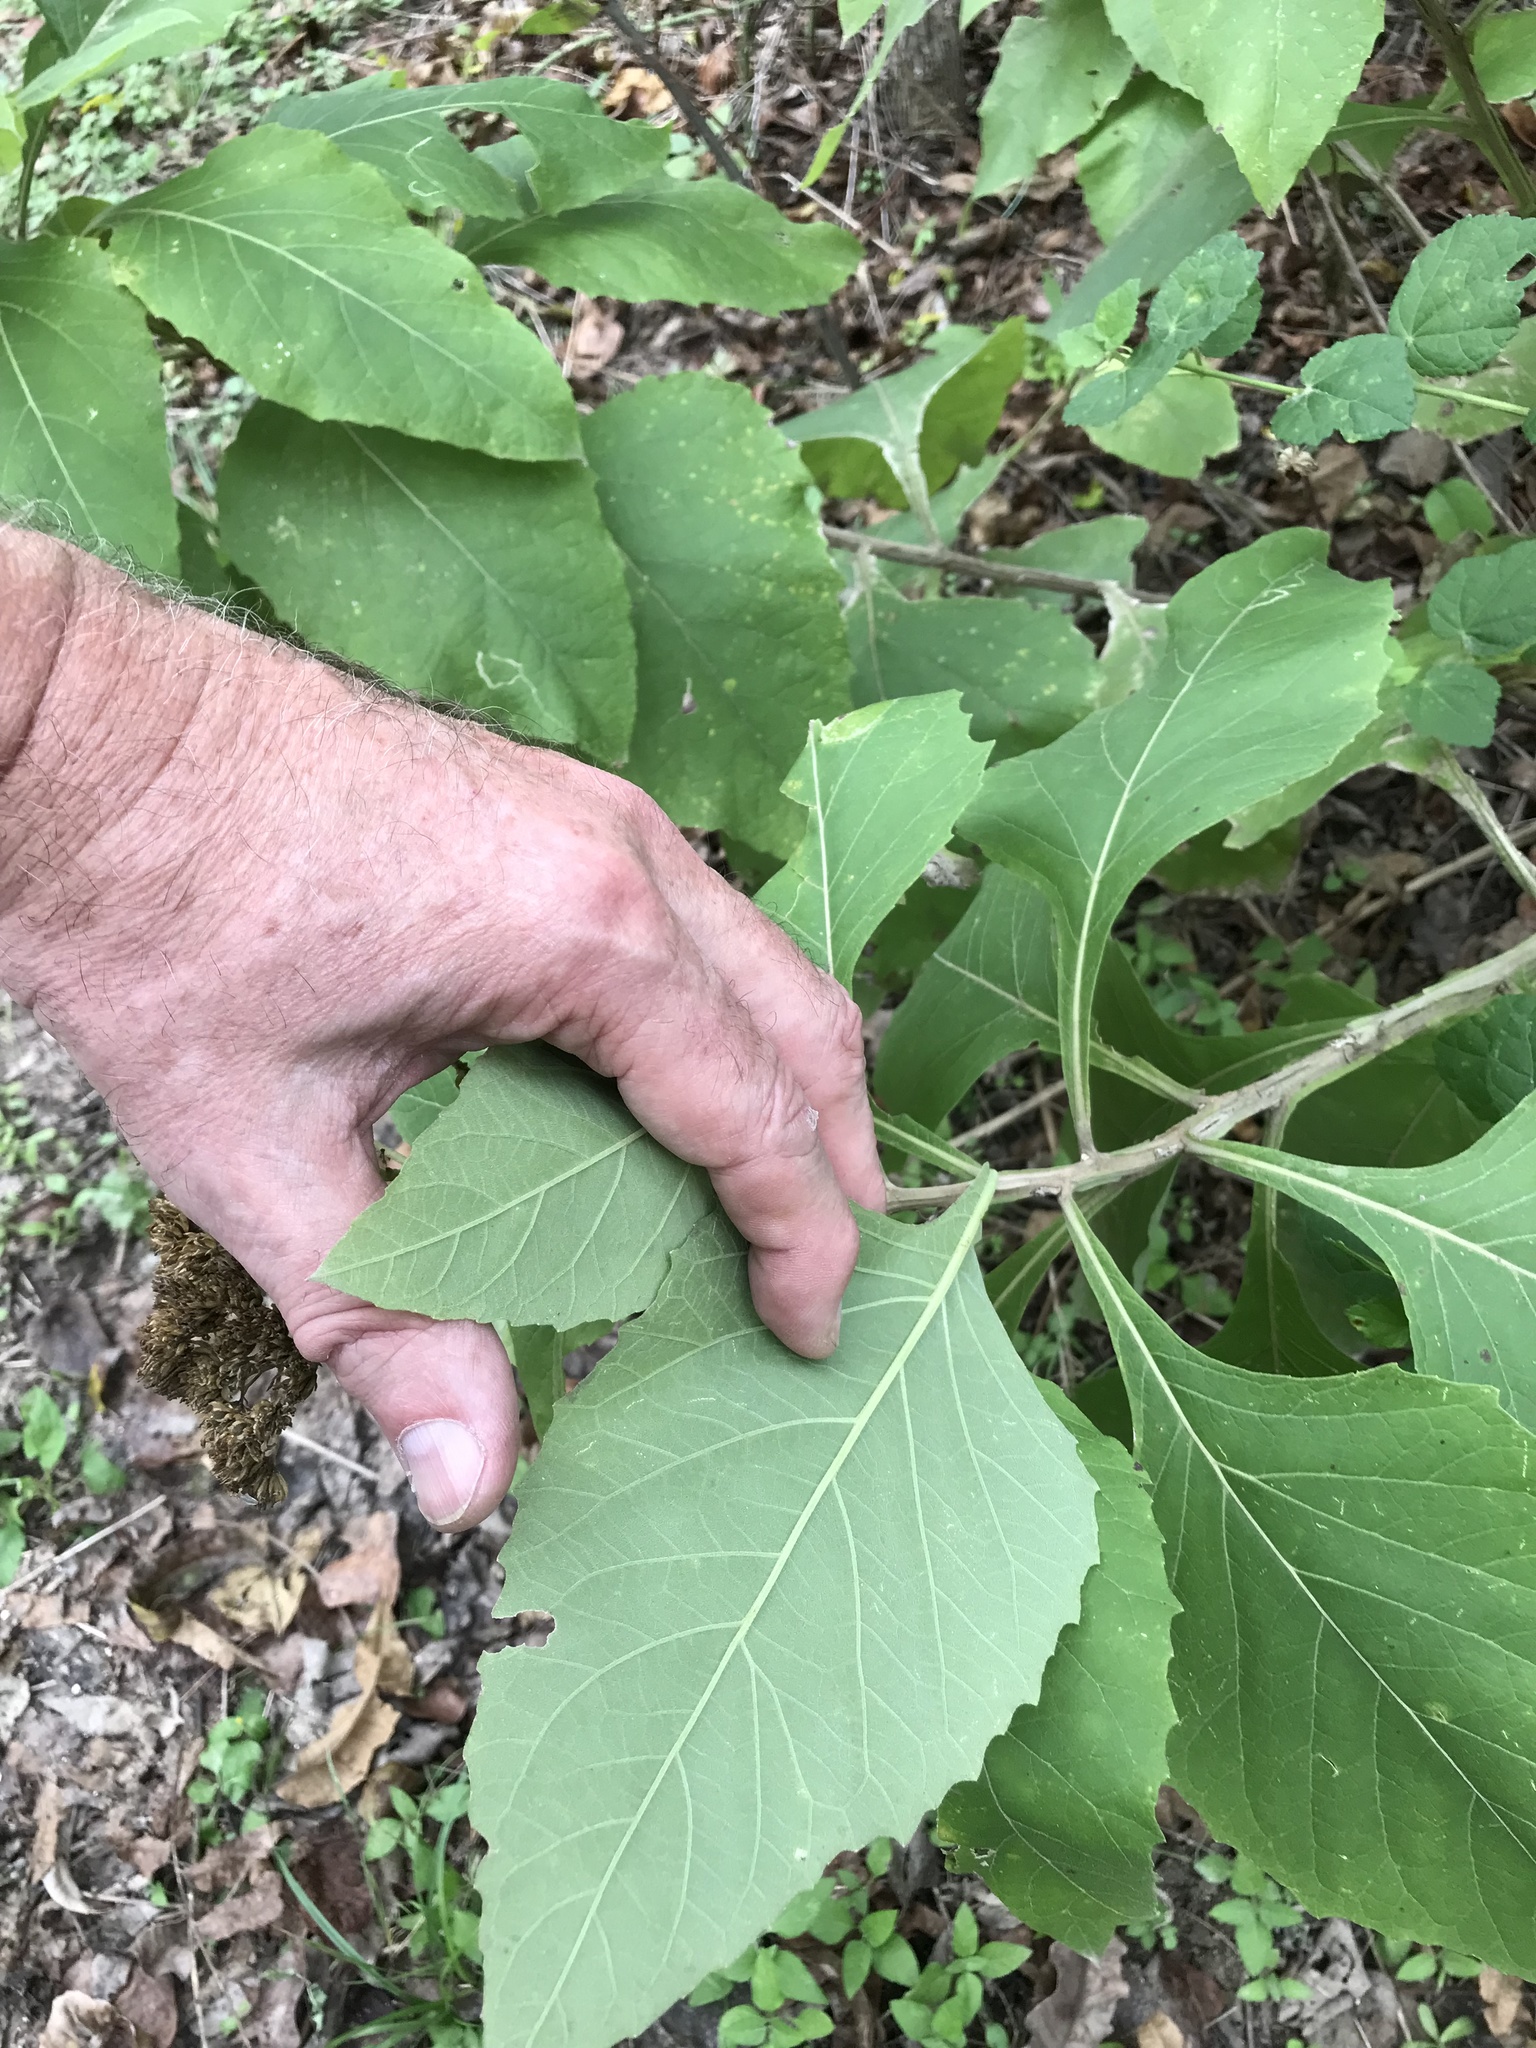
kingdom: Plantae
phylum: Tracheophyta
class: Magnoliopsida
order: Asterales
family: Asteraceae
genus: Verbesina
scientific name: Verbesina virginica
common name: Frostweed
